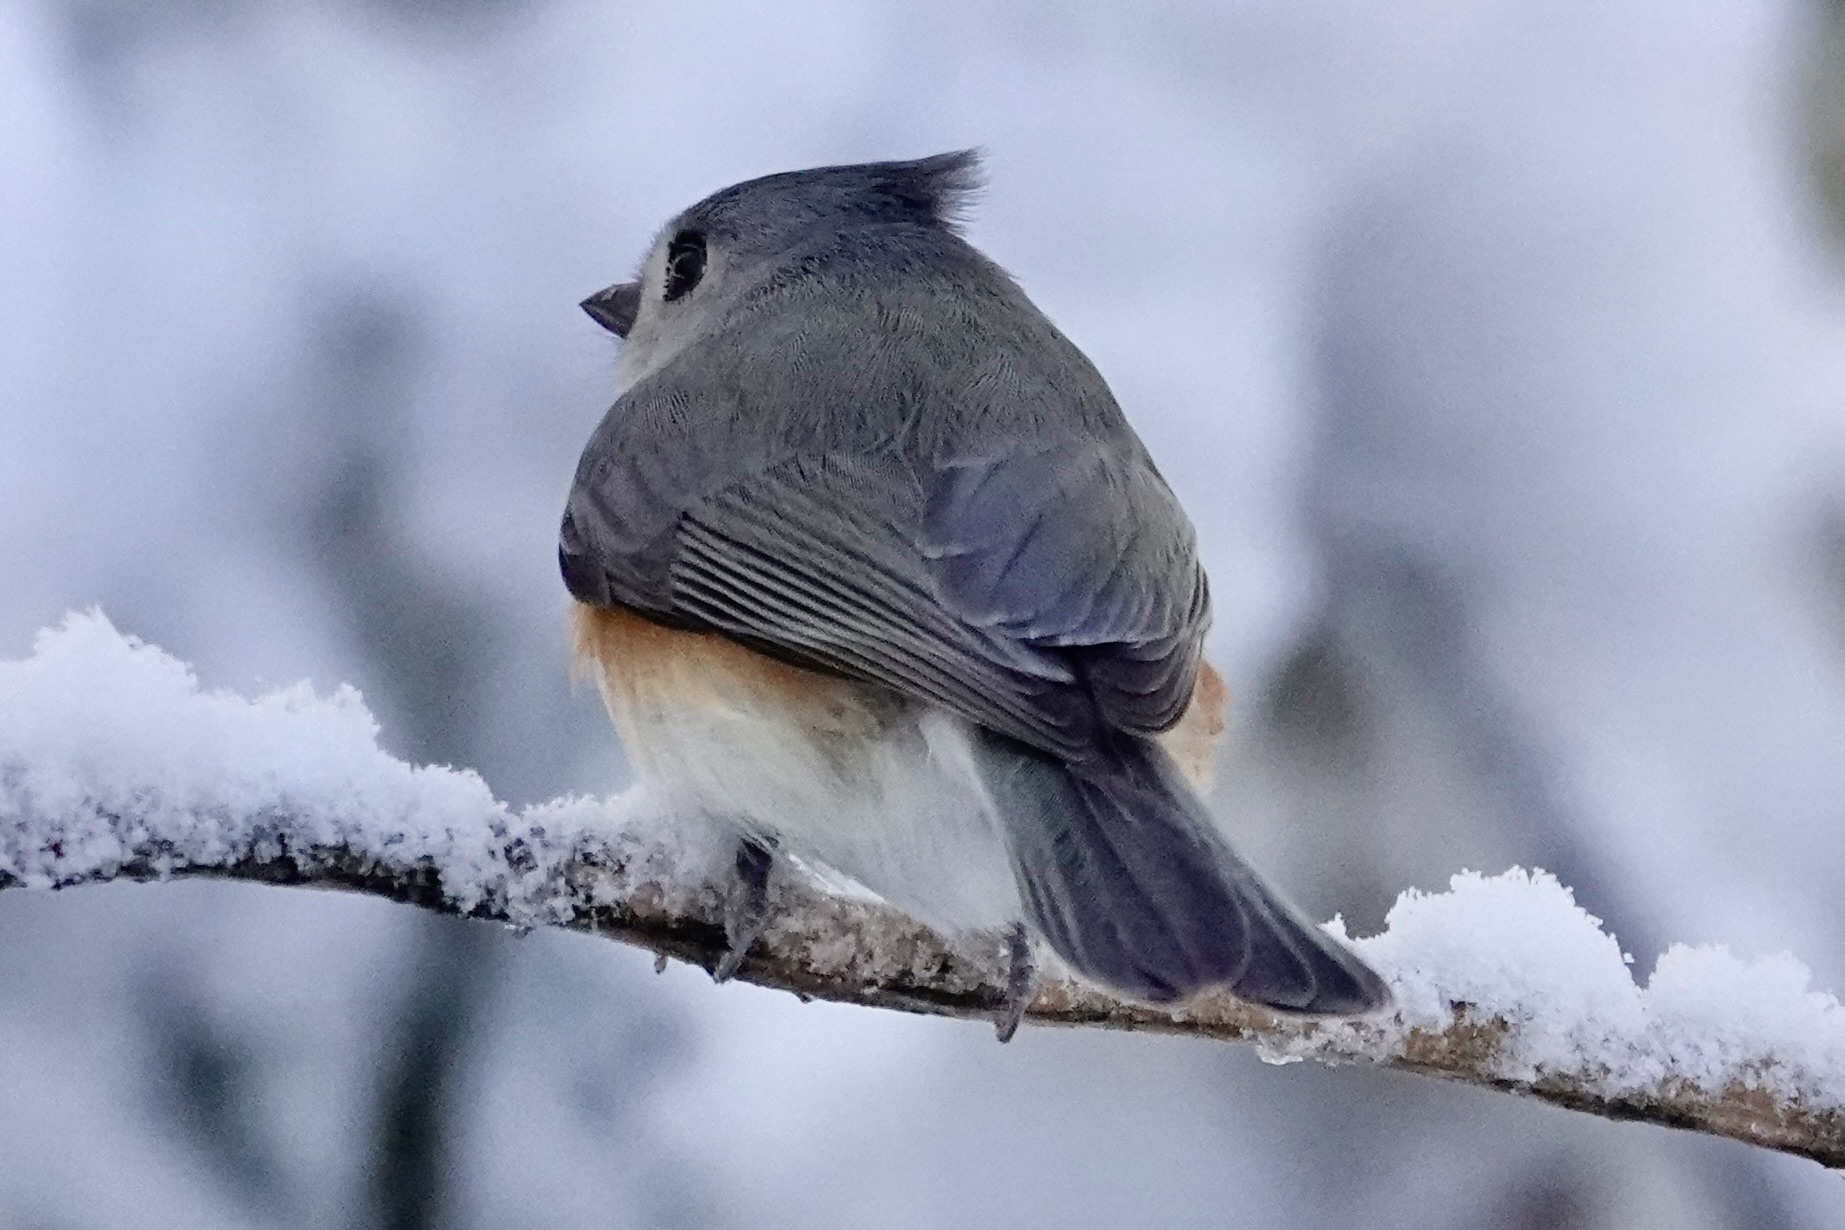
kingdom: Animalia
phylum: Chordata
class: Aves
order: Passeriformes
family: Paridae
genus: Baeolophus
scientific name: Baeolophus bicolor
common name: Tufted titmouse
